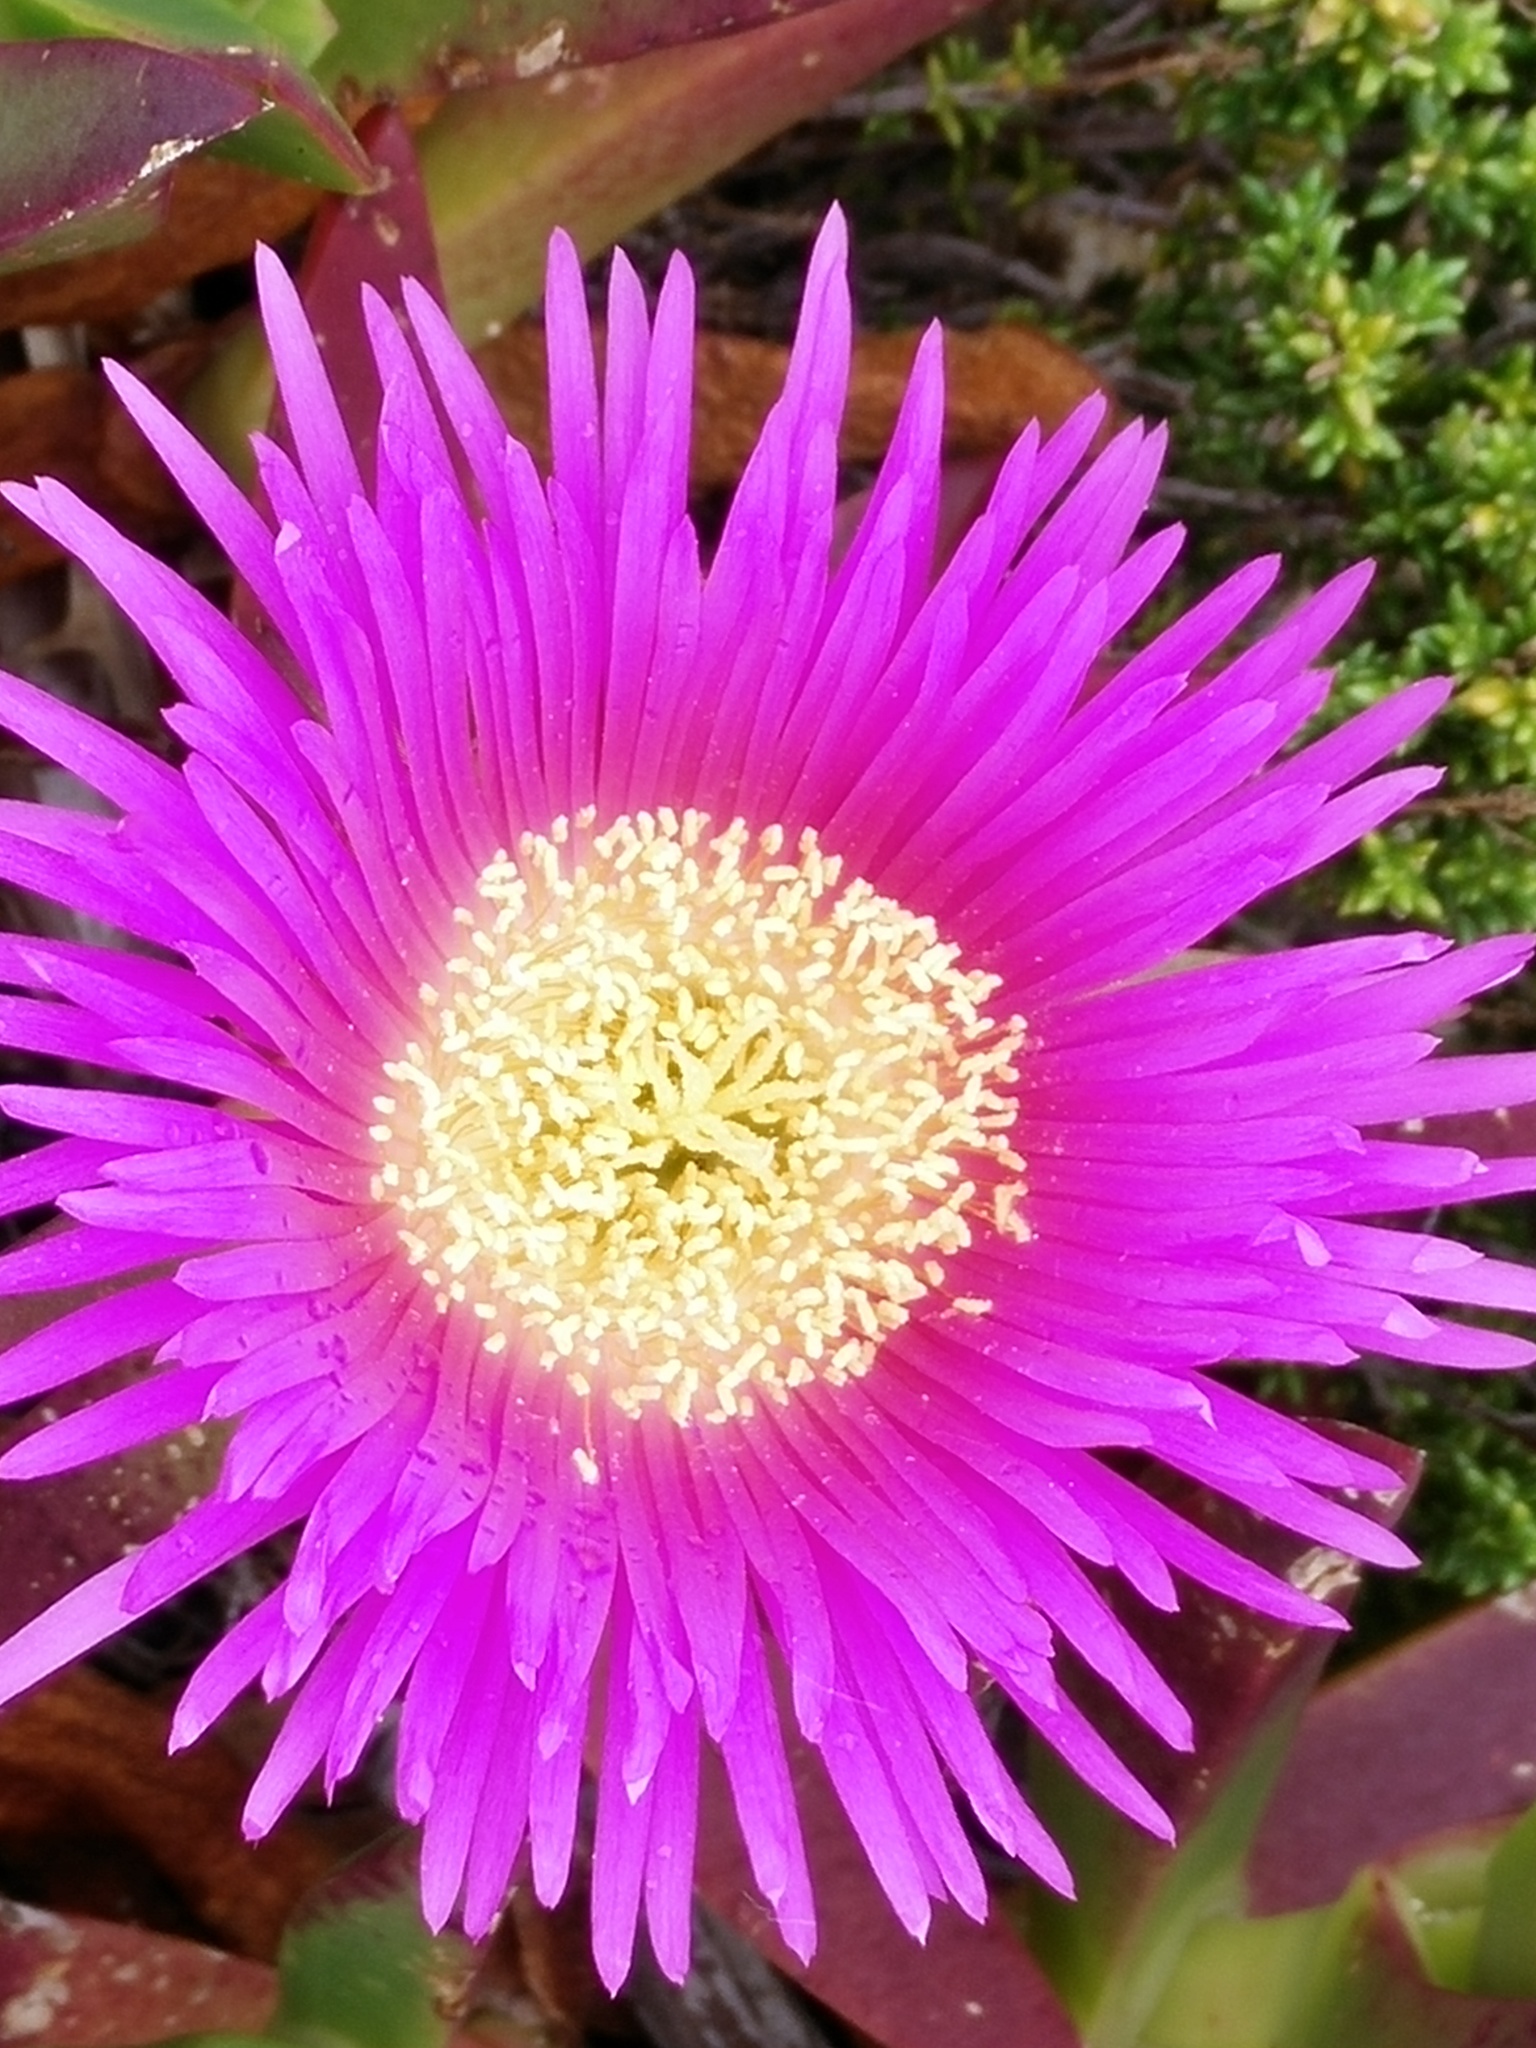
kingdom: Plantae
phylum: Tracheophyta
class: Magnoliopsida
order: Caryophyllales
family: Aizoaceae
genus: Carpobrotus
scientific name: Carpobrotus edulis
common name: Hottentot-fig
